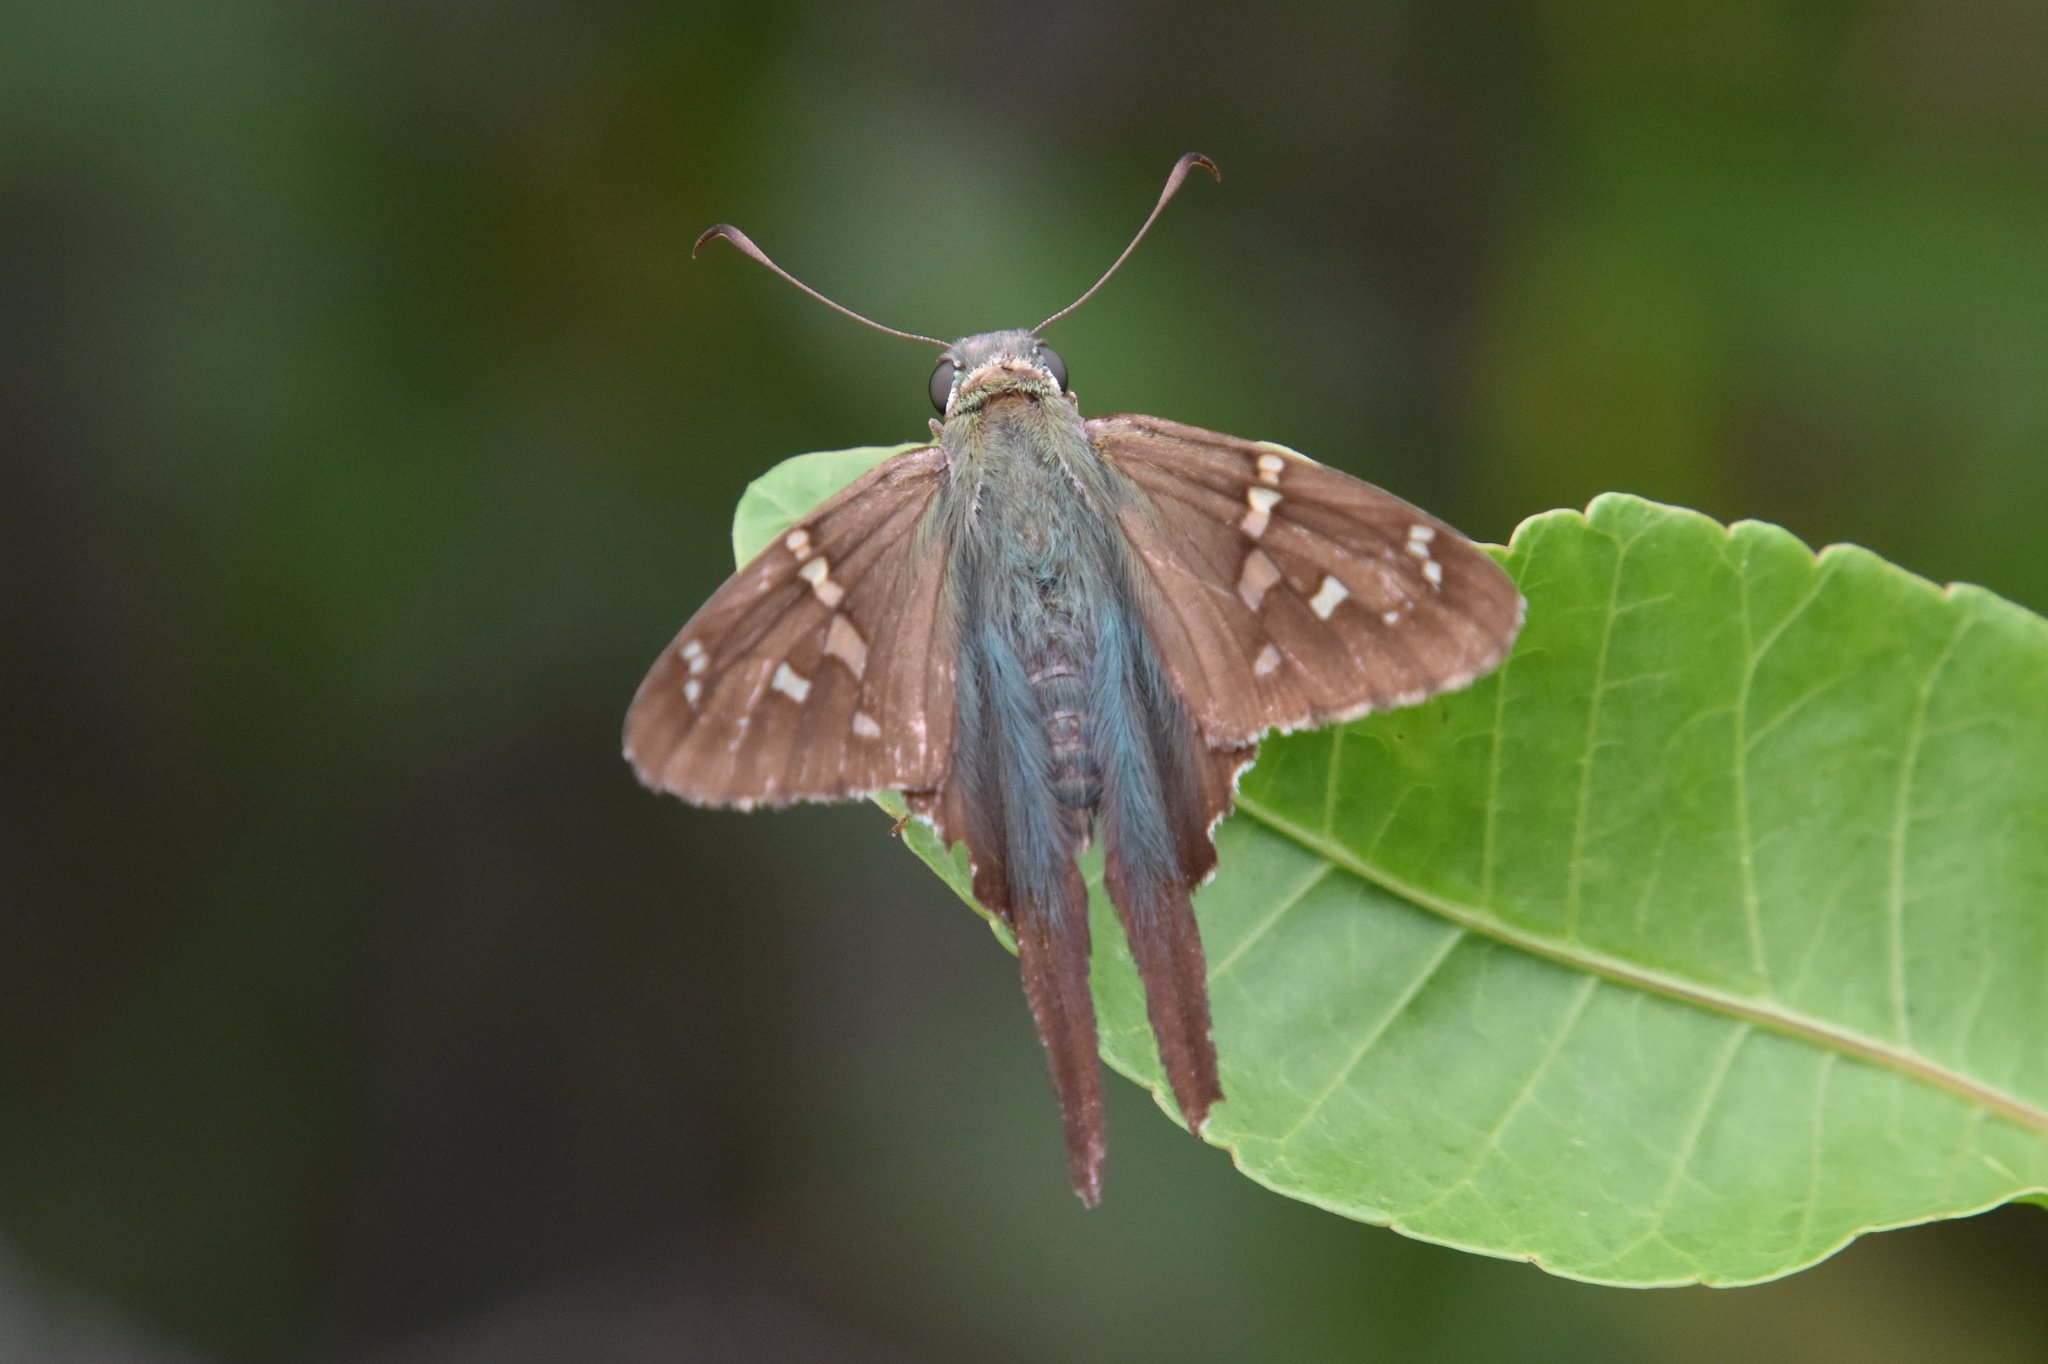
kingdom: Animalia
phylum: Arthropoda
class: Insecta
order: Lepidoptera
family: Hesperiidae
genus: Urbanus
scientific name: Urbanus proteus
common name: Long-tailed skipper
